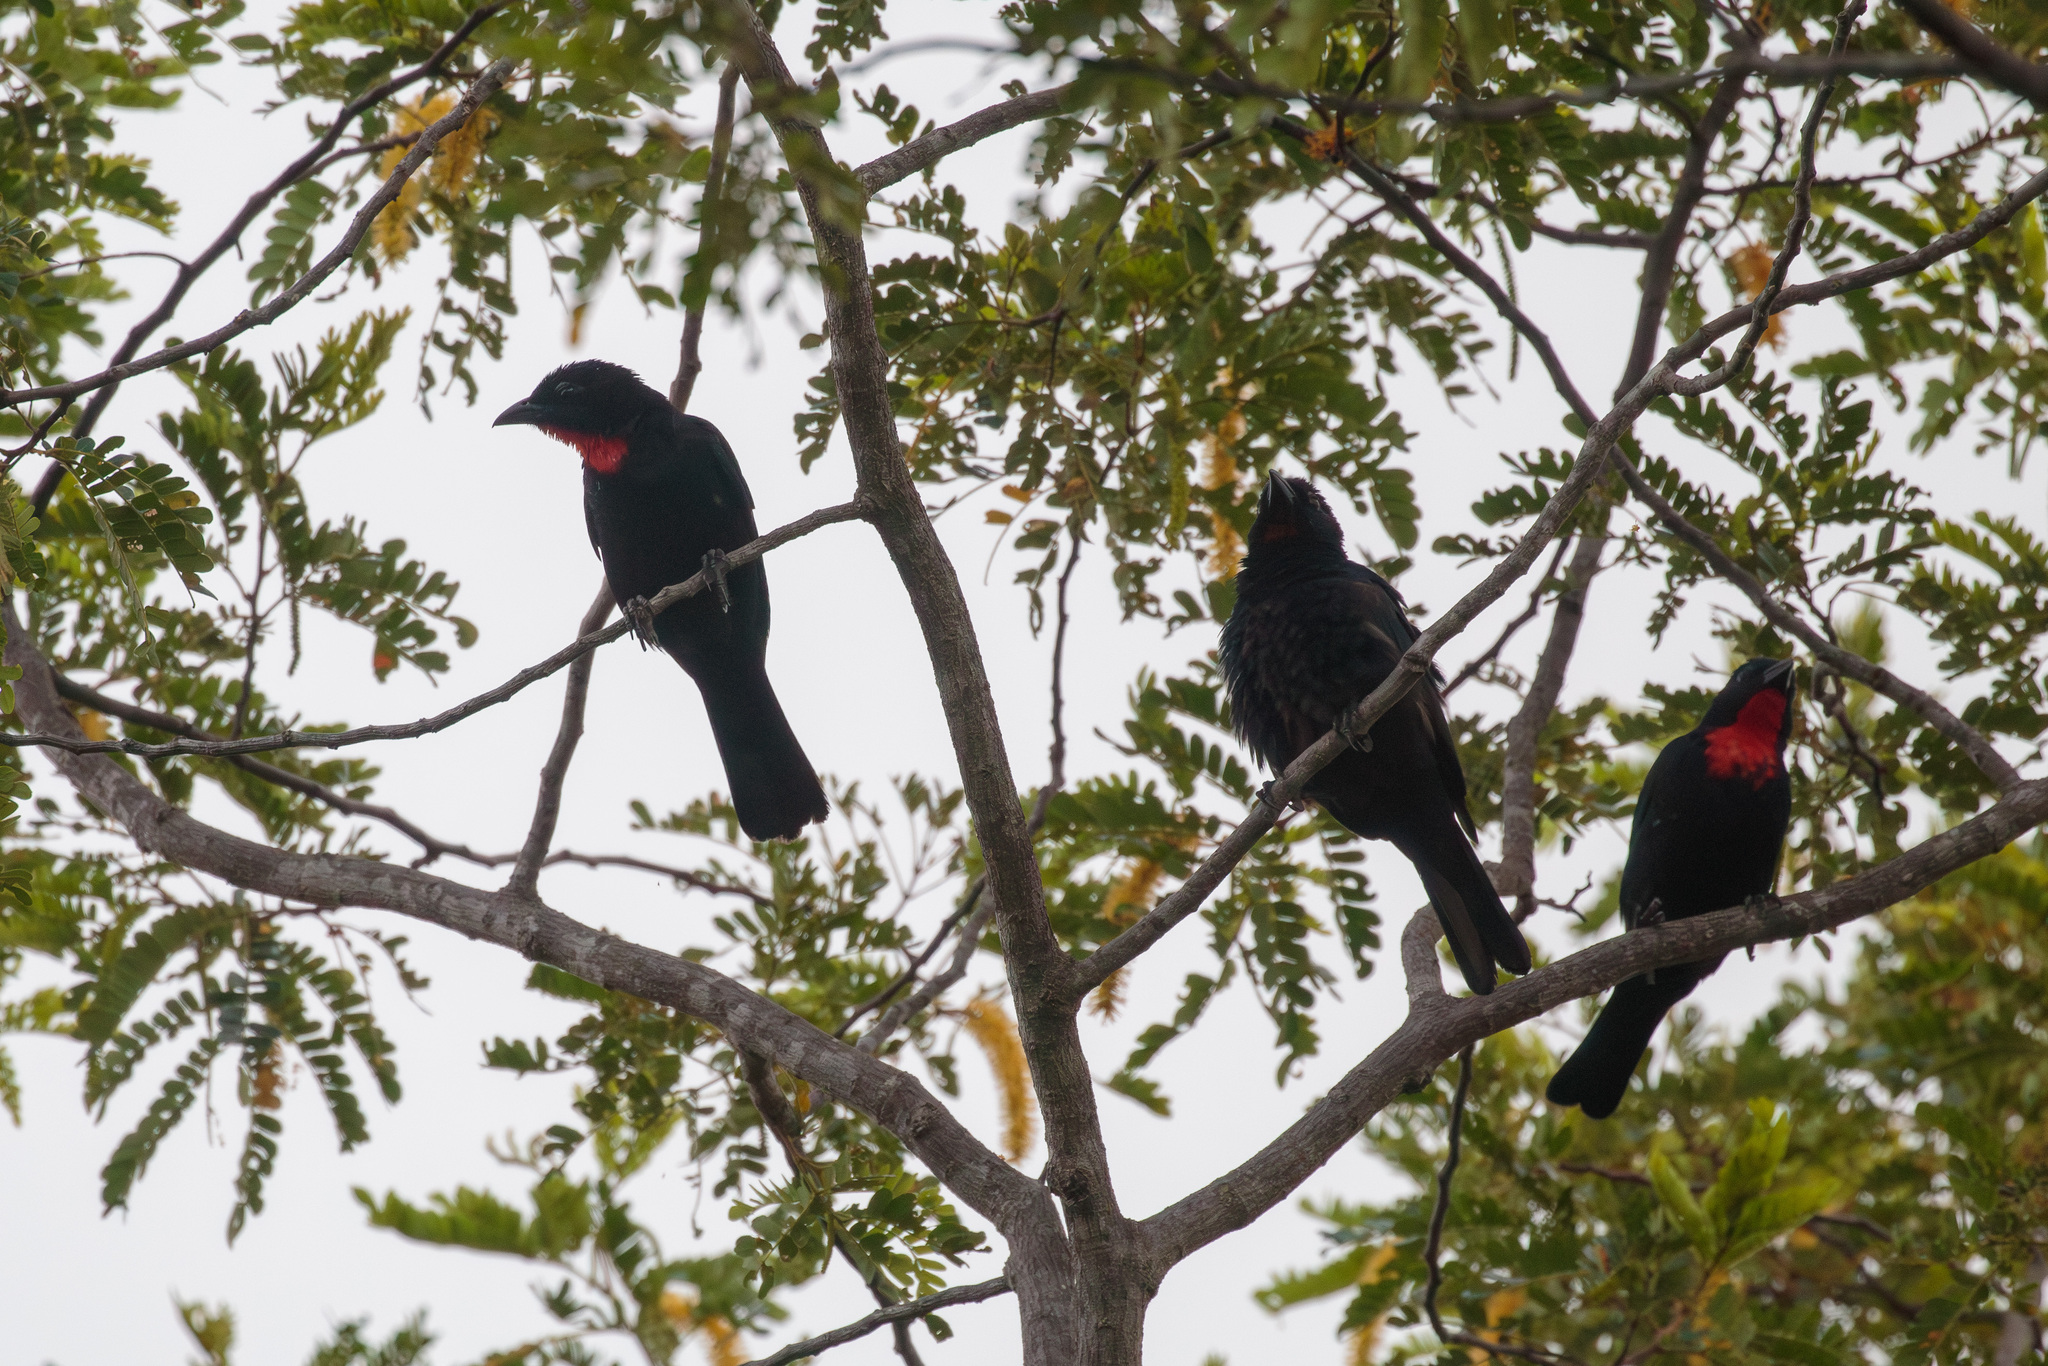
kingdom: Animalia
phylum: Chordata
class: Aves
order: Passeriformes
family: Thraupidae
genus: Compsothraupis
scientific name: Compsothraupis loricata
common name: Scarlet-throated tanager
